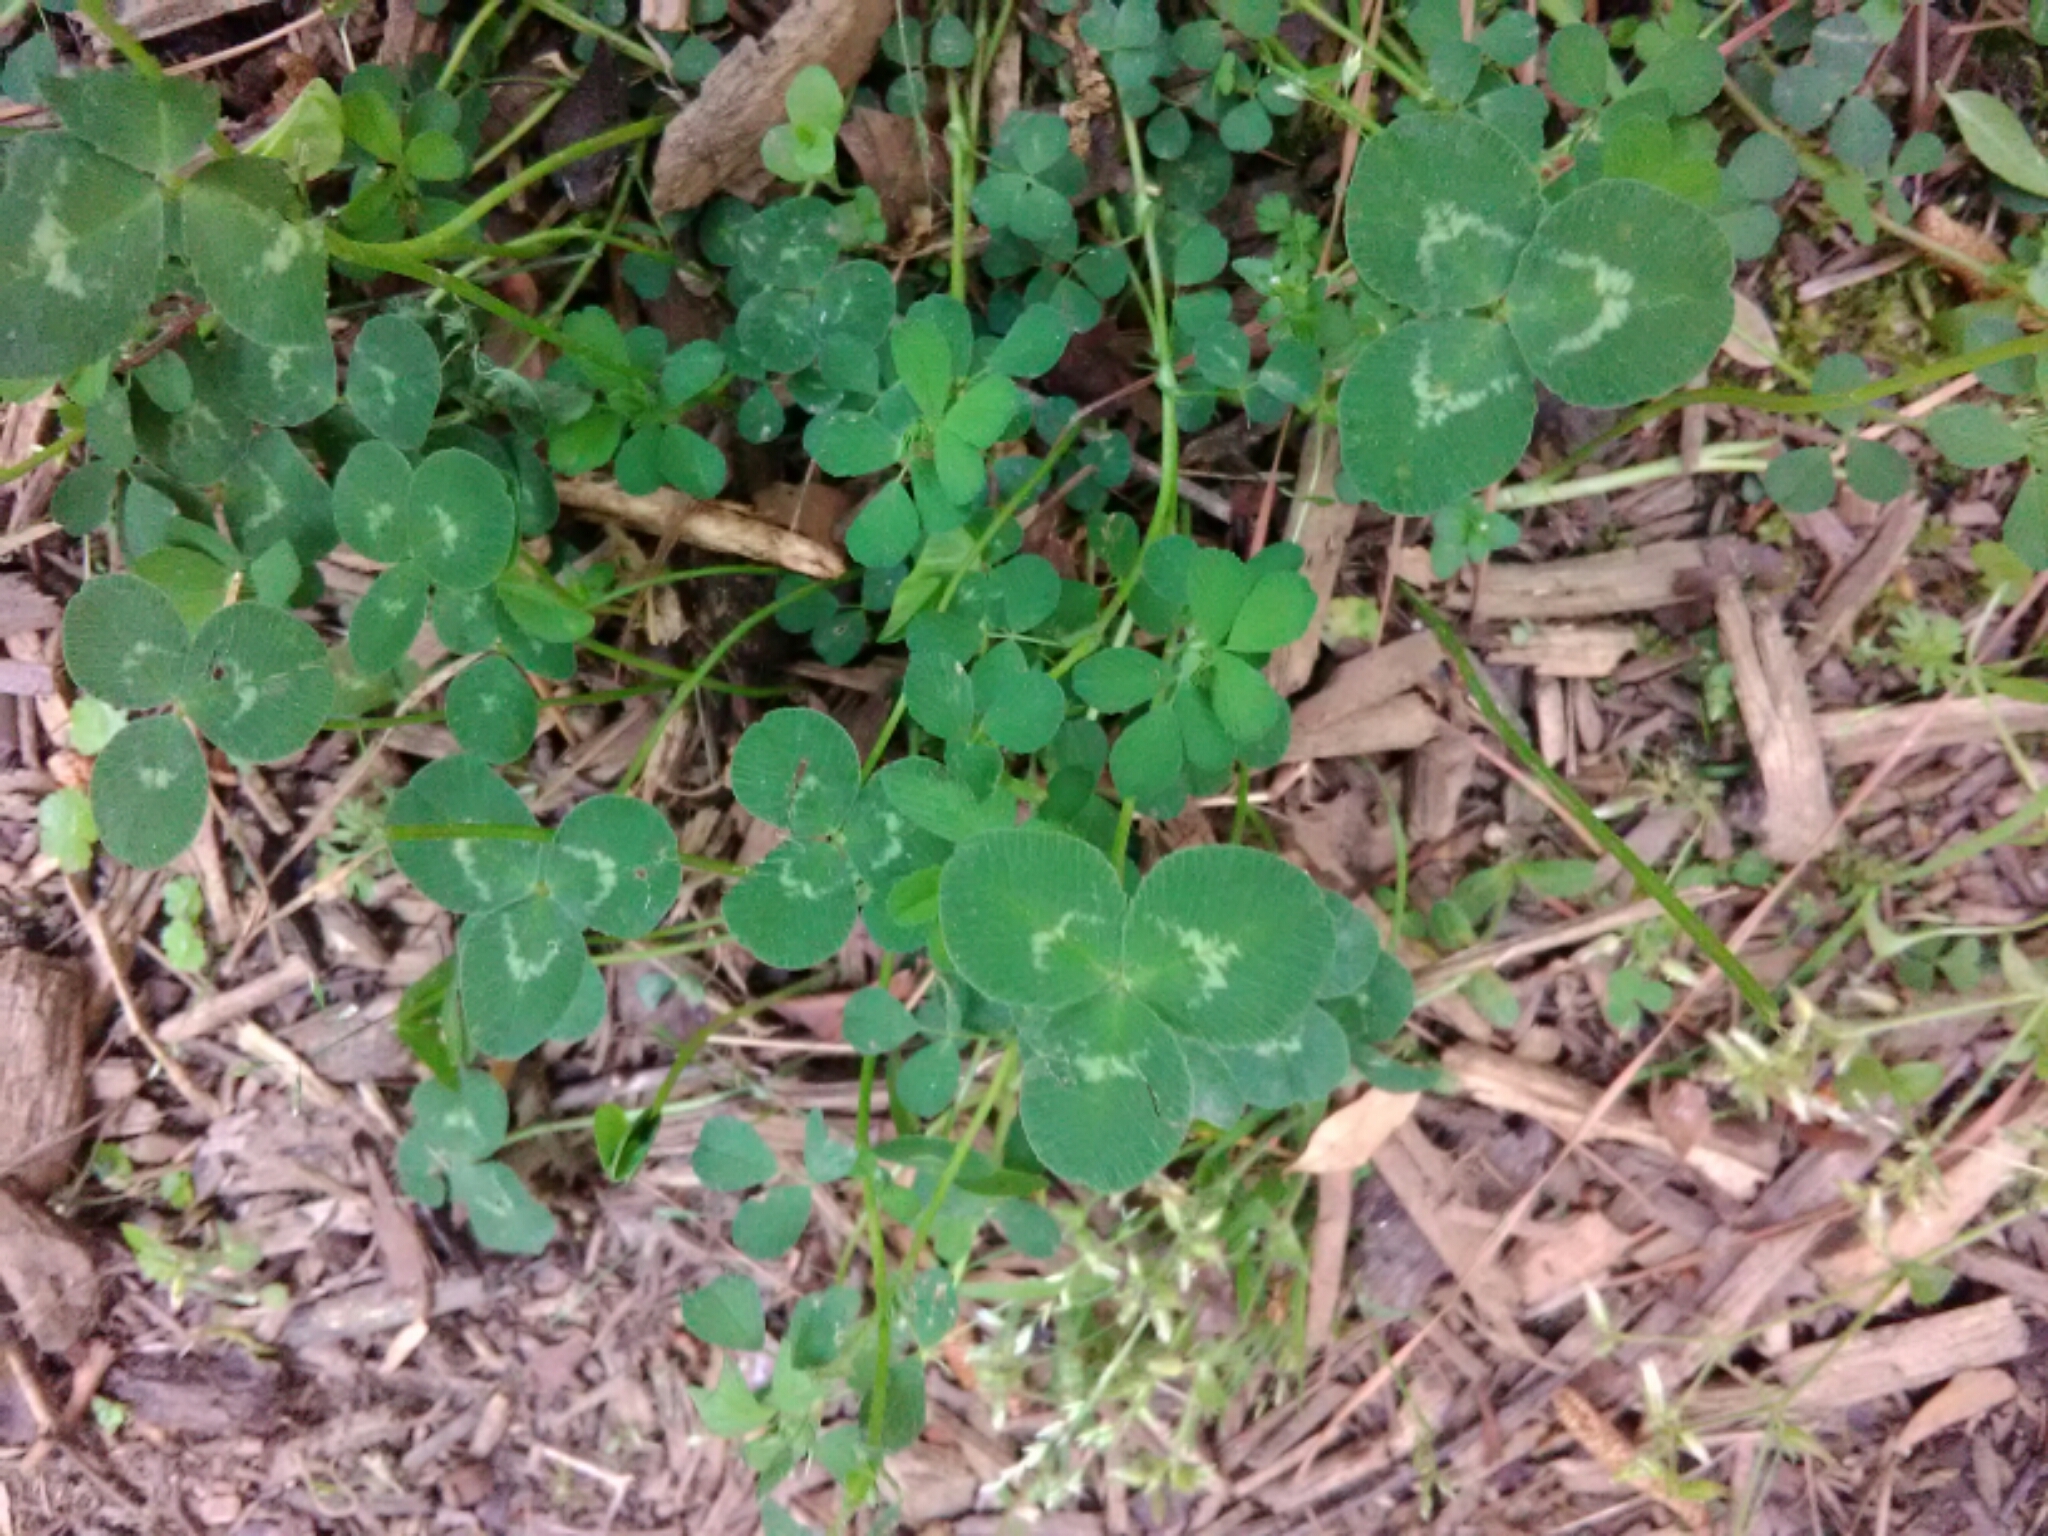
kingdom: Plantae
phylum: Tracheophyta
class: Magnoliopsida
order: Fabales
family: Fabaceae
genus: Trifolium
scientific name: Trifolium repens
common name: White clover
